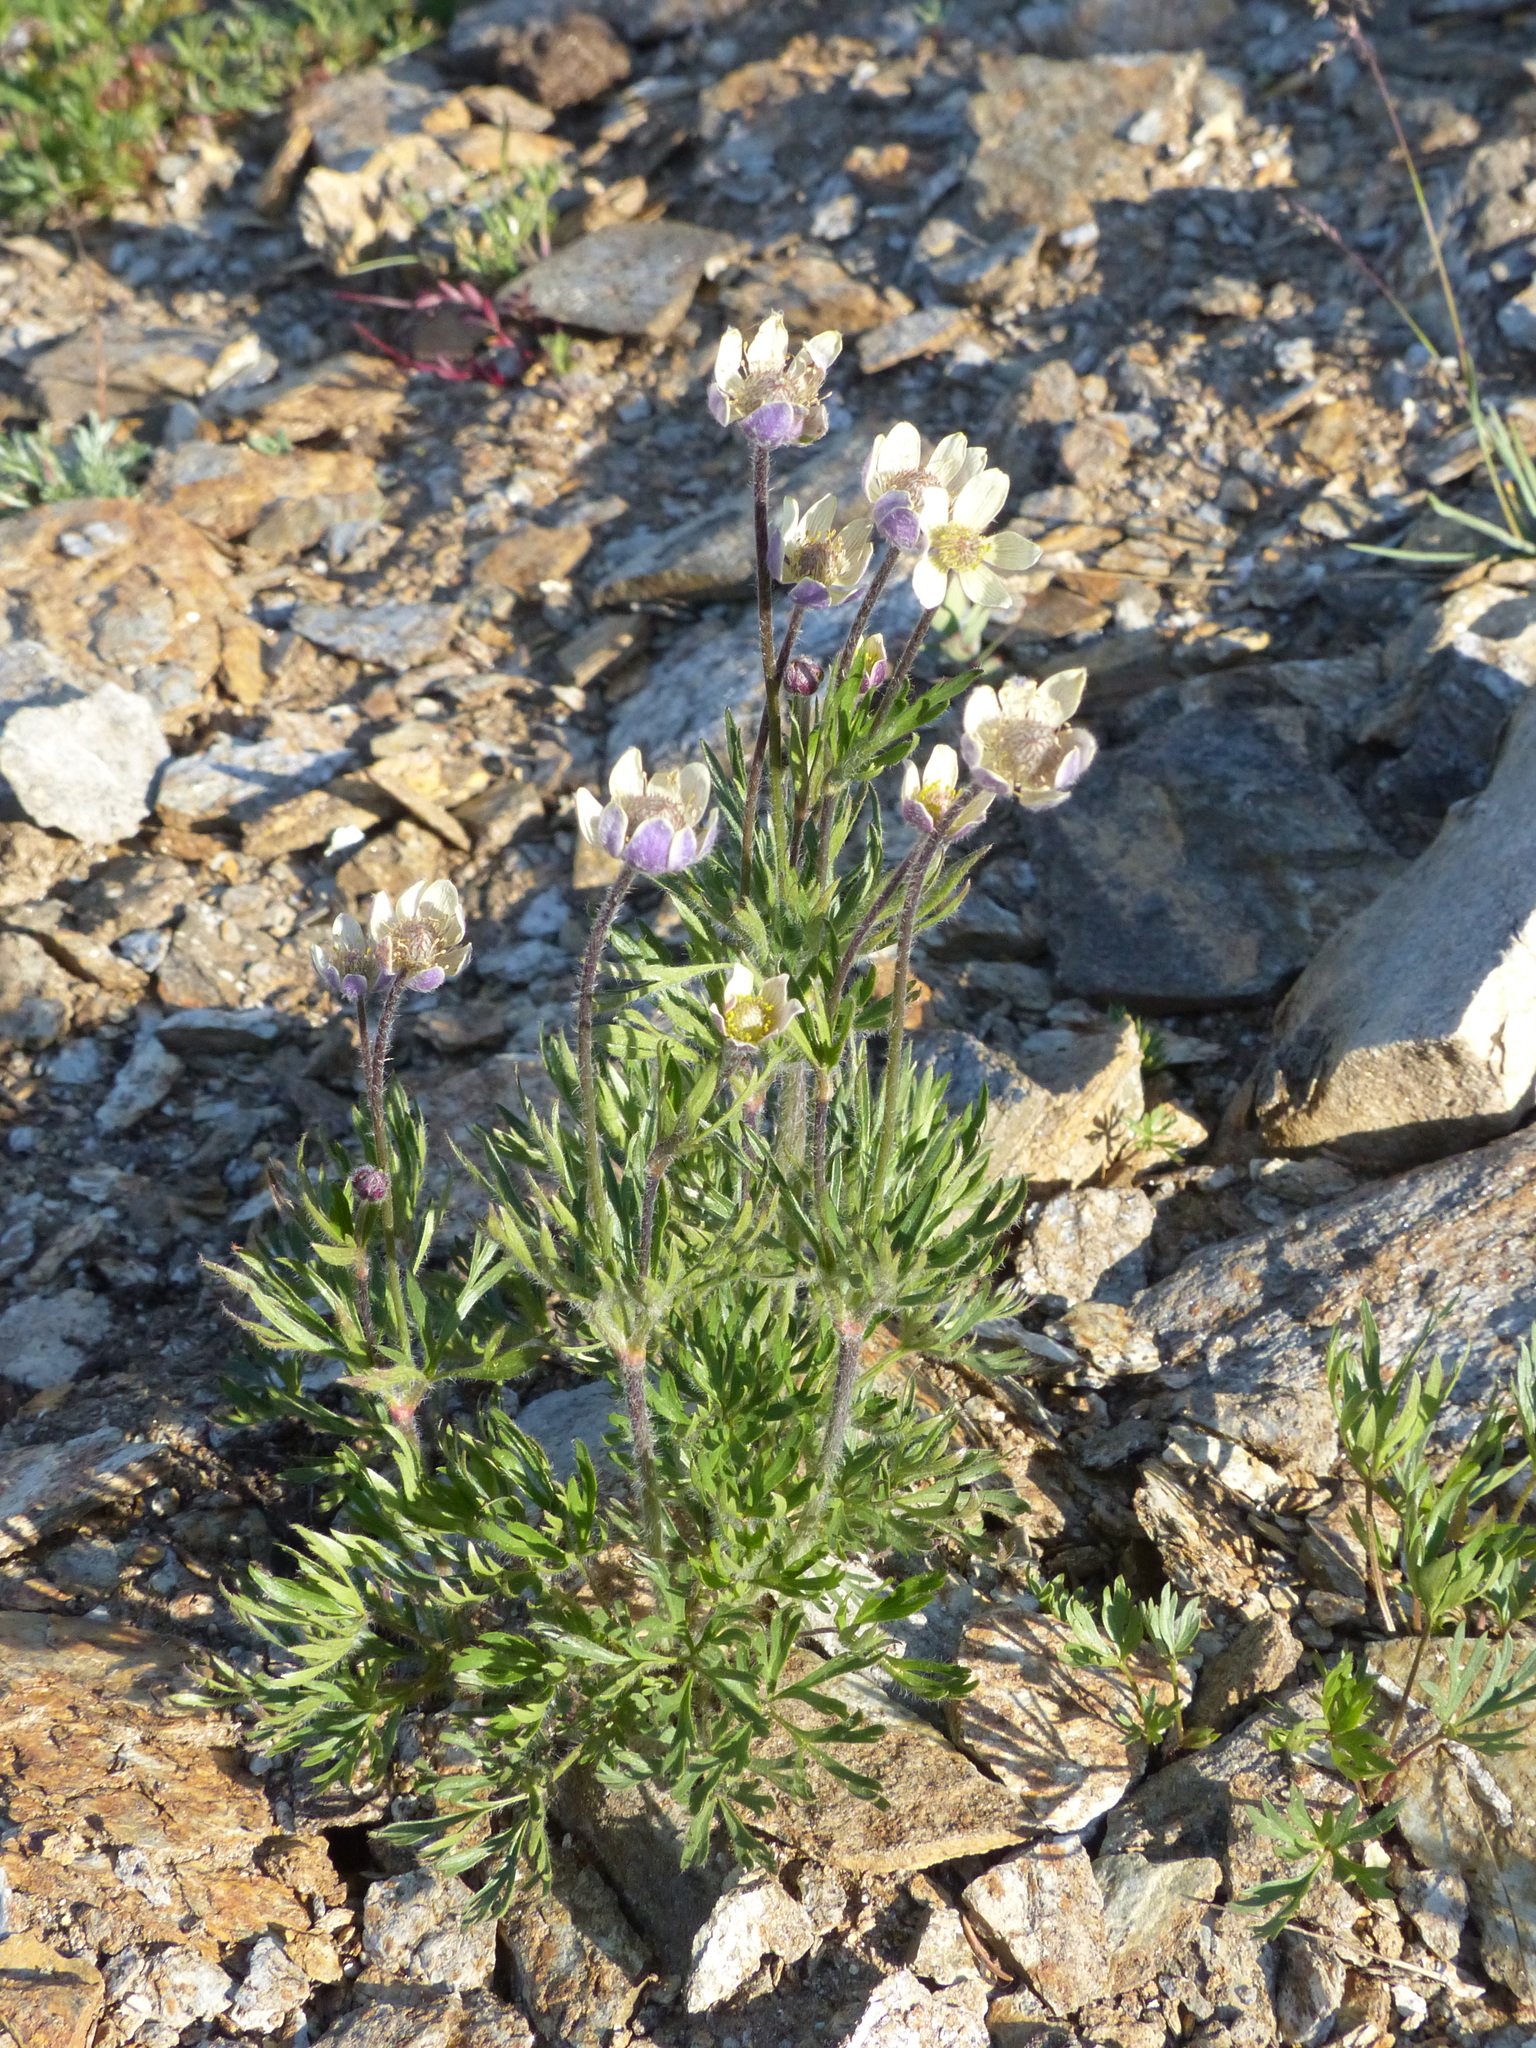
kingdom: Plantae
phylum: Tracheophyta
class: Magnoliopsida
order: Ranunculales
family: Ranunculaceae
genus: Anemone
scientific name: Anemone multifida
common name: Bird's-foot anemone
